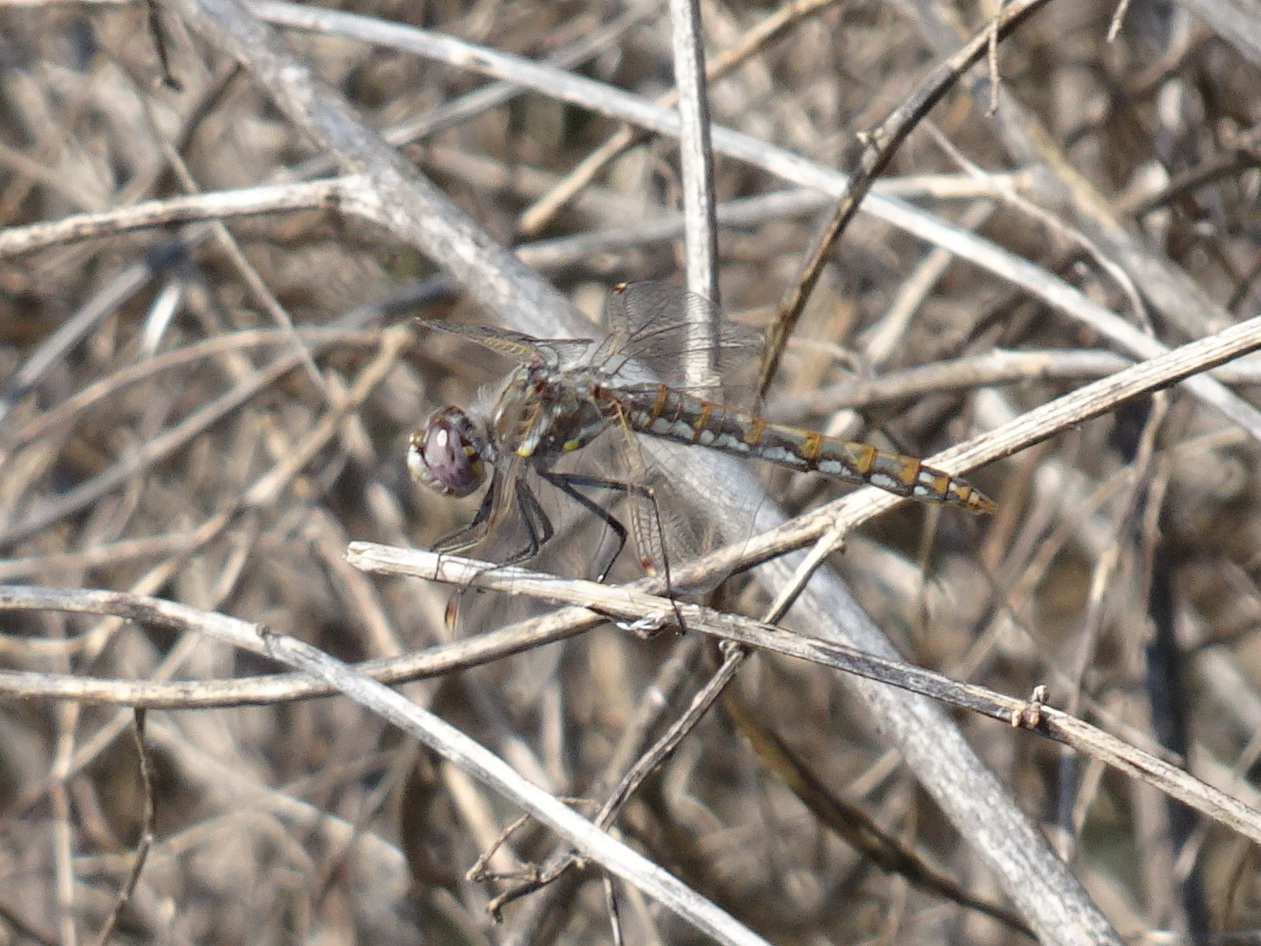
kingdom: Animalia
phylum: Arthropoda
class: Insecta
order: Odonata
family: Libellulidae
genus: Sympetrum
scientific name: Sympetrum corruptum
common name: Variegated meadowhawk
